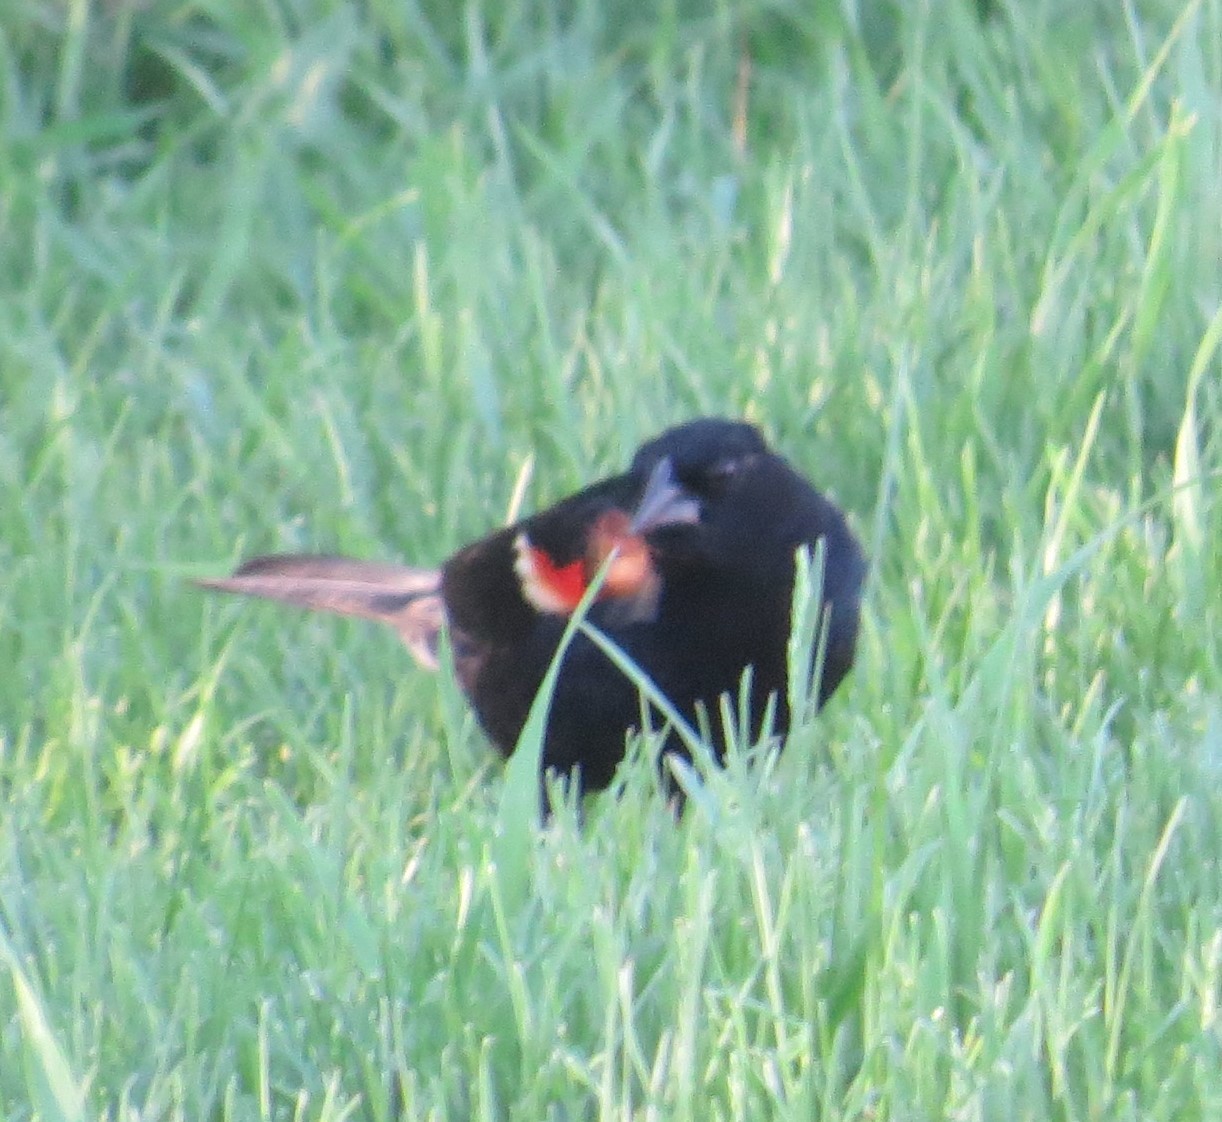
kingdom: Animalia
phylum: Chordata
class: Aves
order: Passeriformes
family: Icteridae
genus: Agelaius
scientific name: Agelaius phoeniceus
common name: Red-winged blackbird
